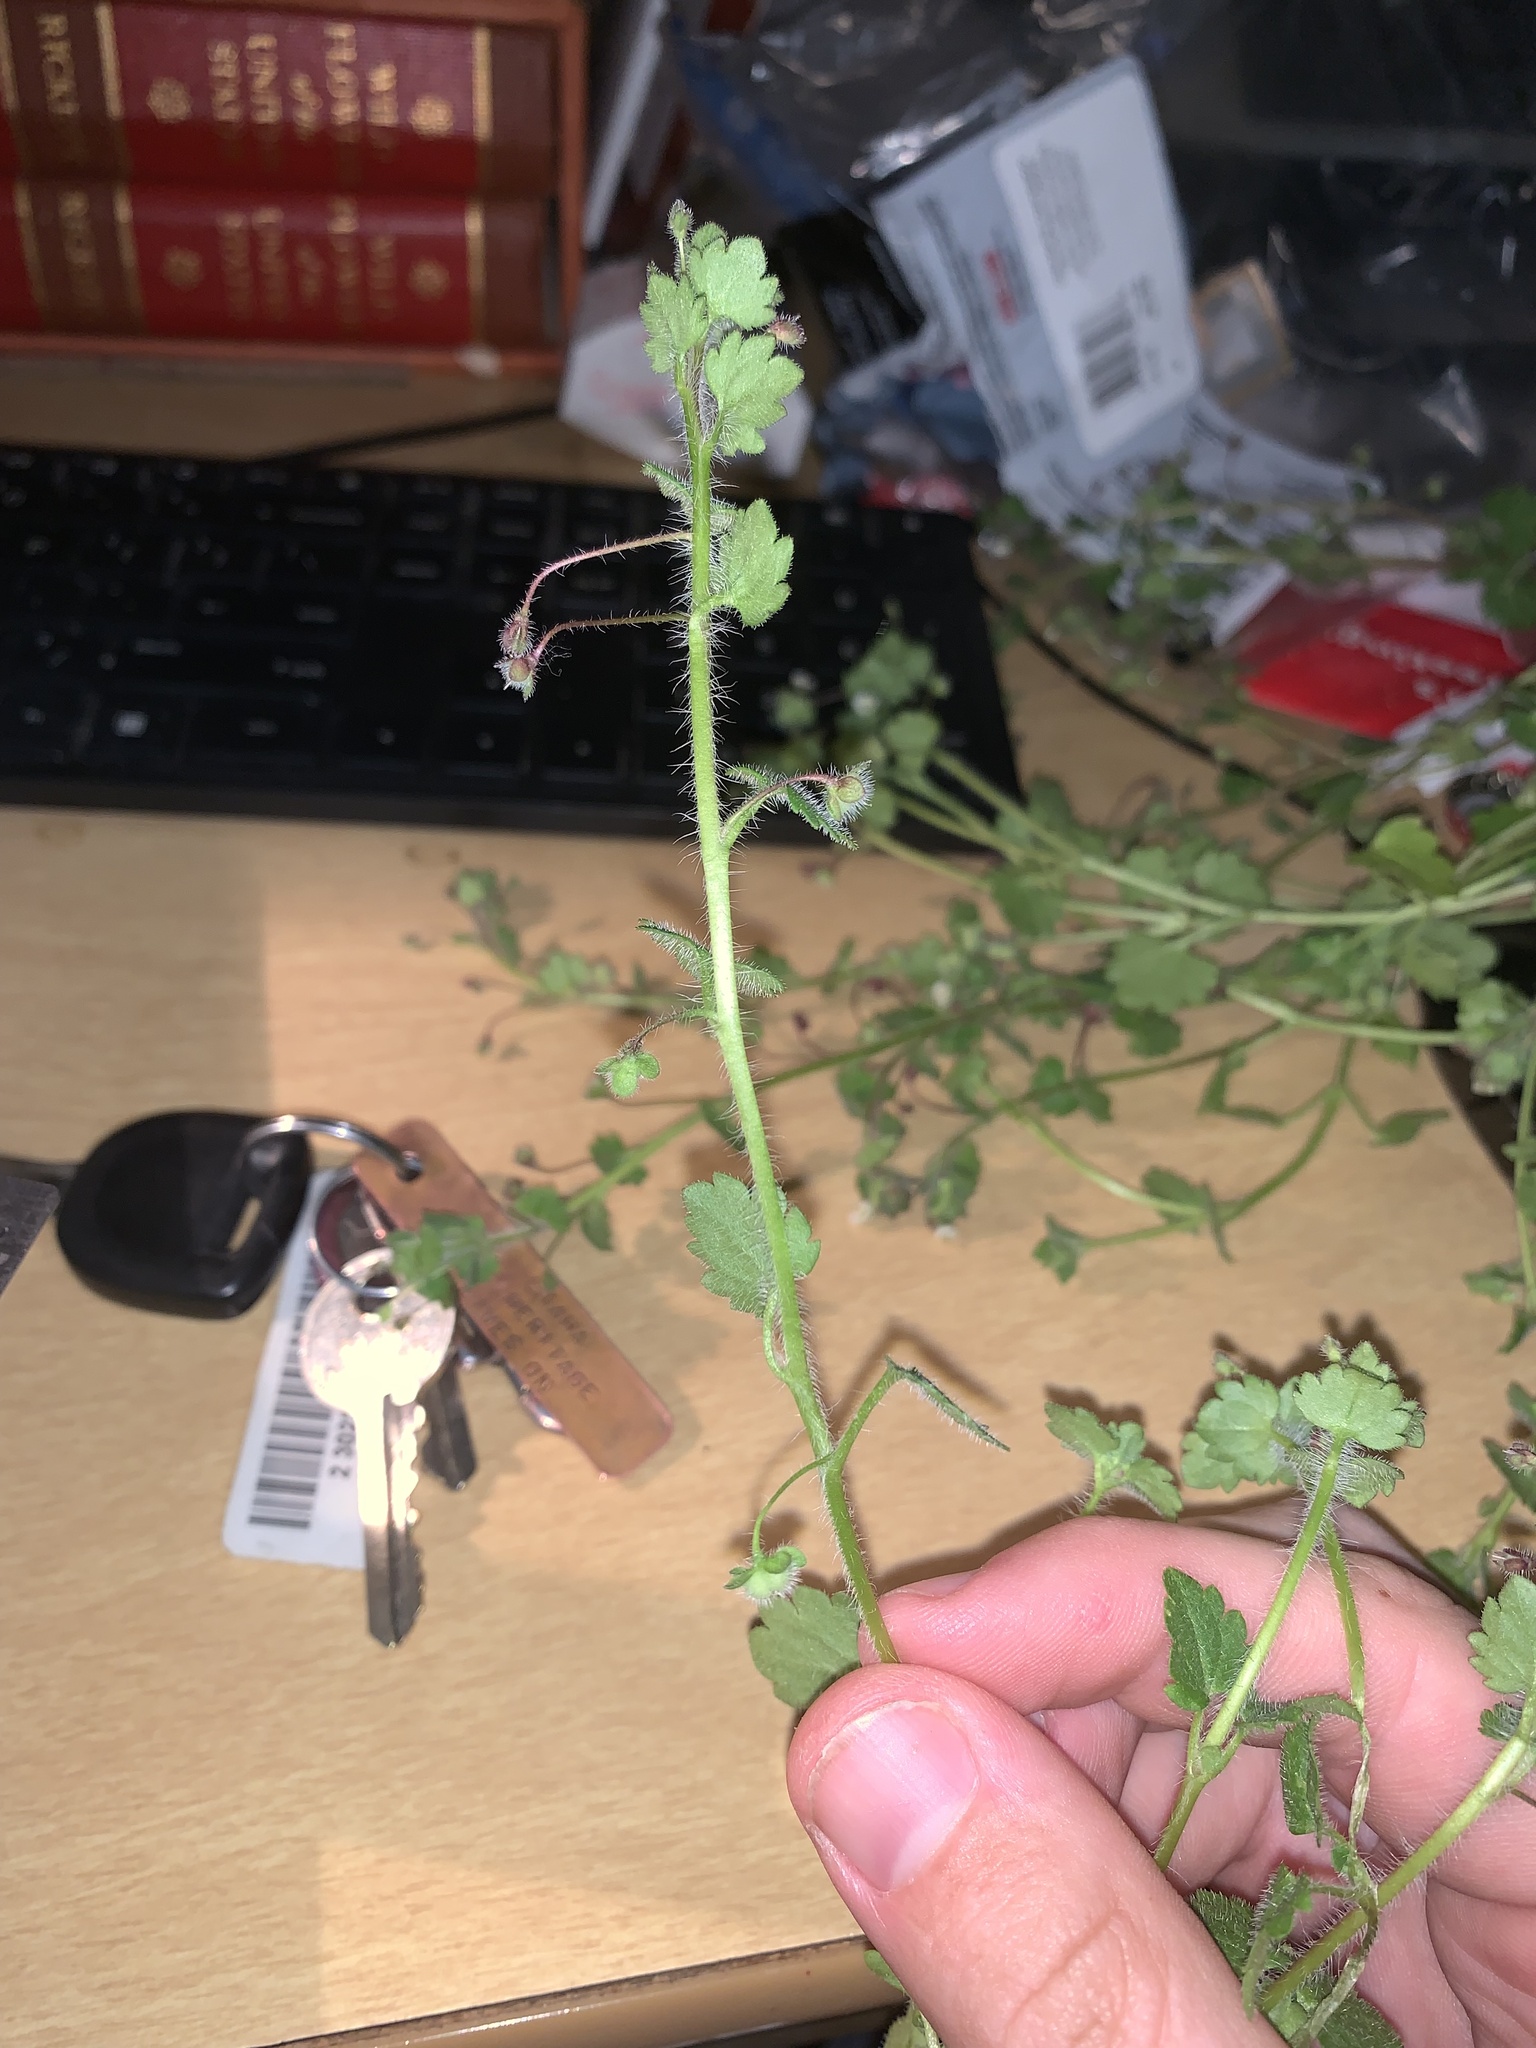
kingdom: Plantae
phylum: Tracheophyta
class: Magnoliopsida
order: Lamiales
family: Plantaginaceae
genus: Veronica
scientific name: Veronica cymbalaria
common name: Pale speedwell
